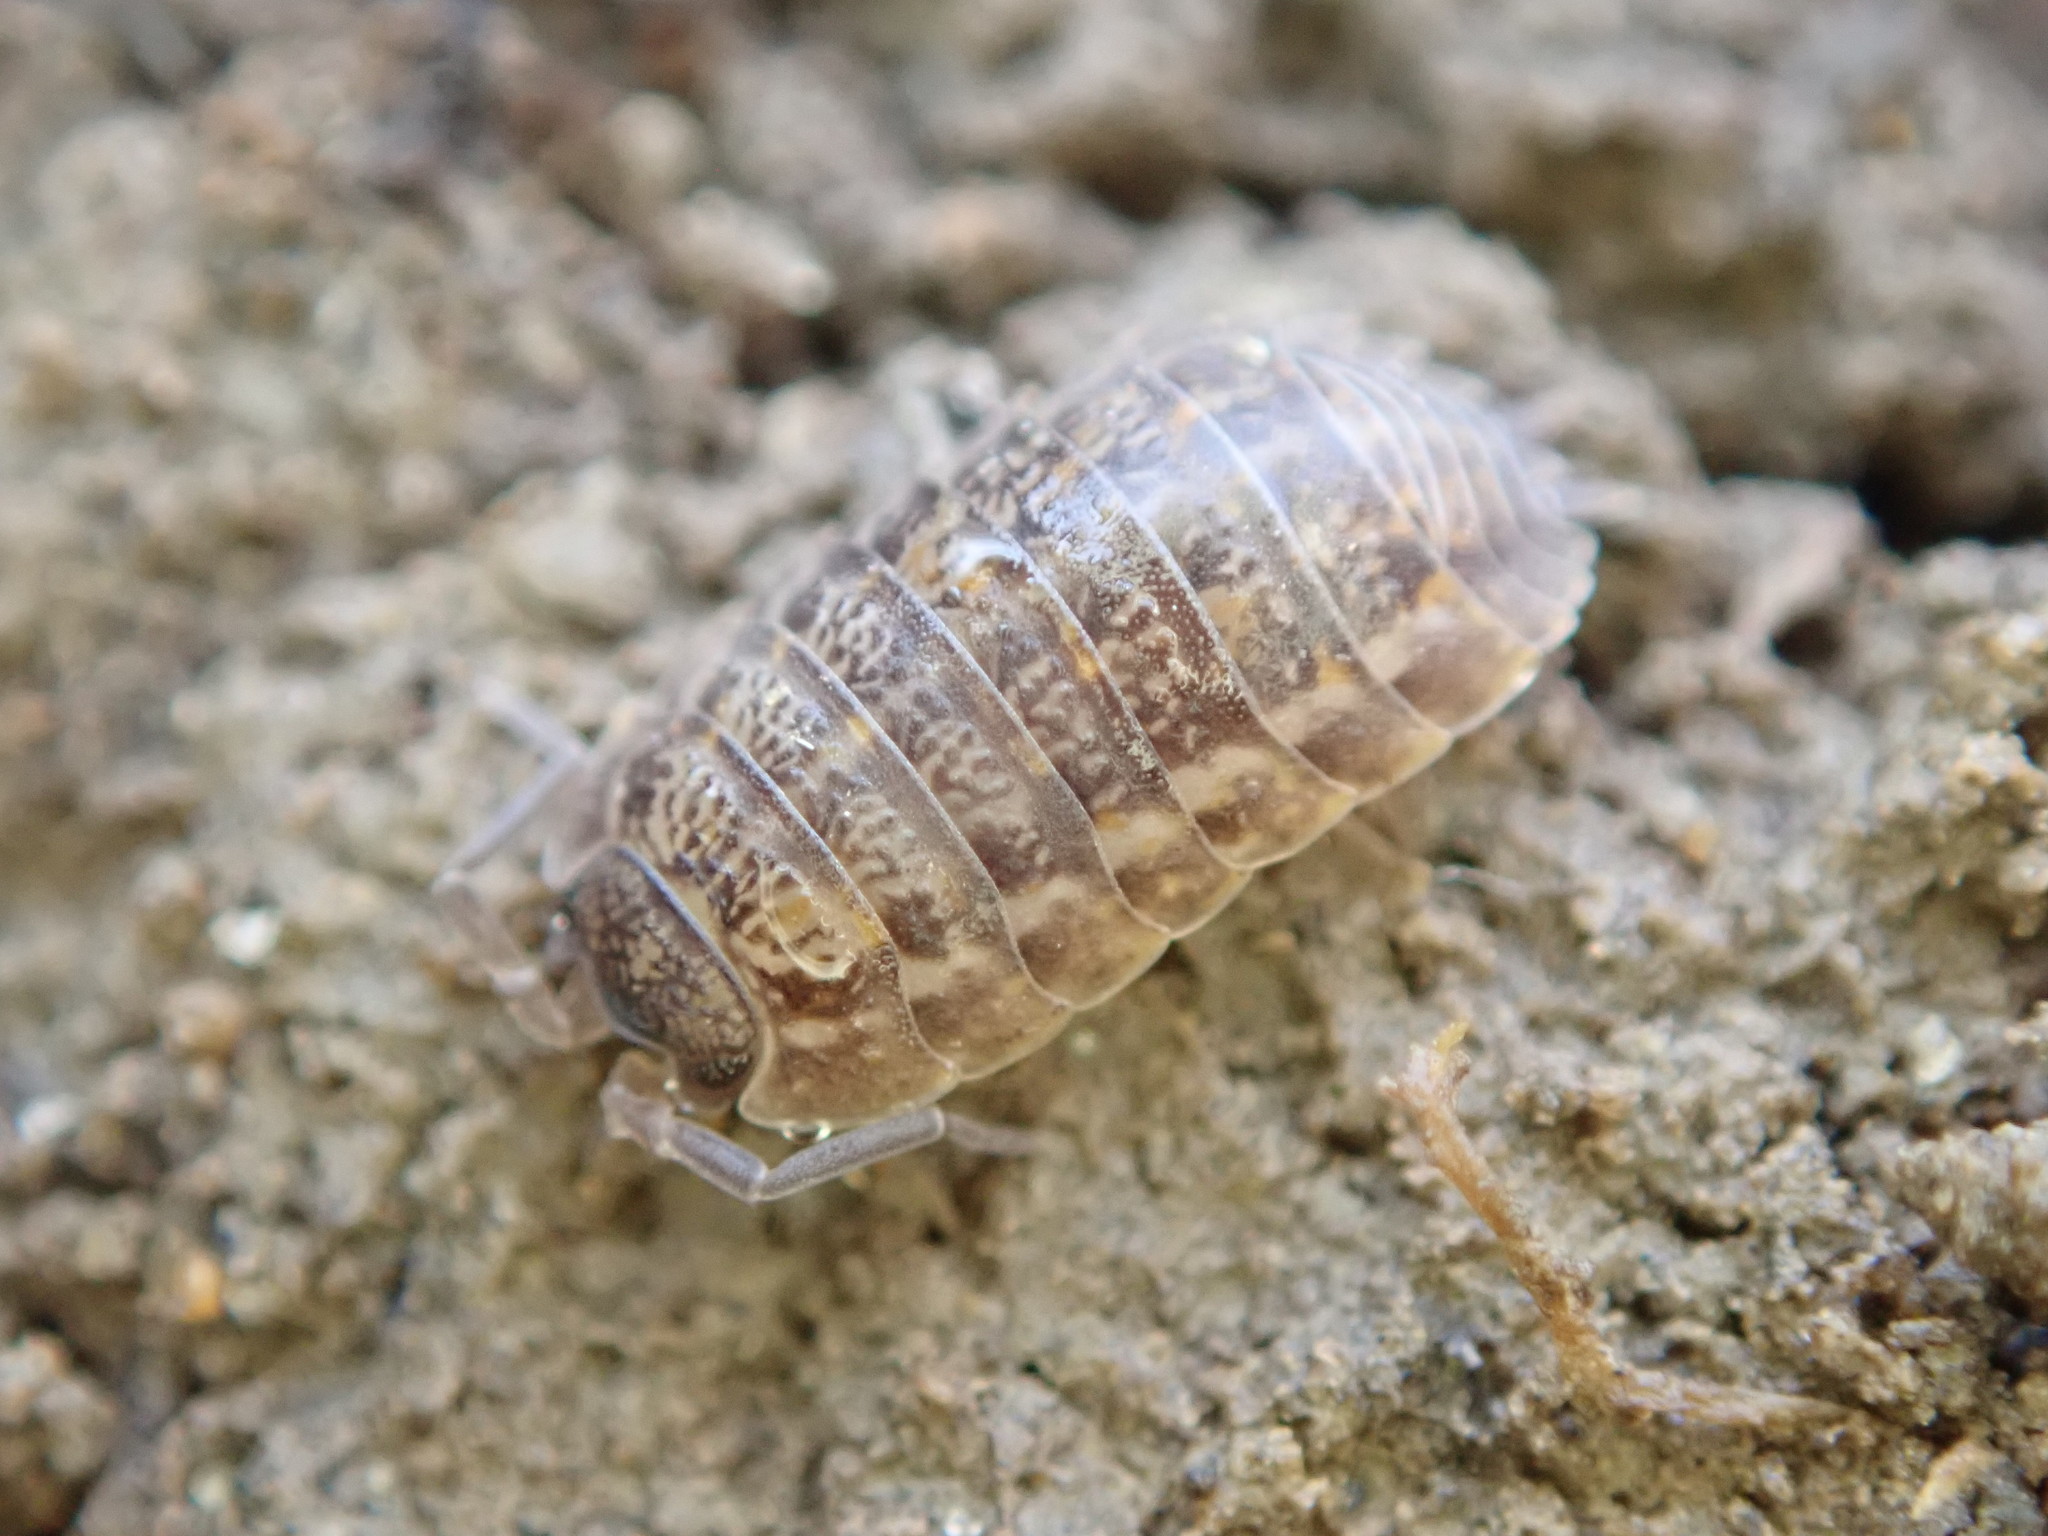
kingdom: Animalia
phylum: Arthropoda
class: Malacostraca
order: Isopoda
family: Trachelipodidae
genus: Trachelipus
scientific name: Trachelipus rathkii
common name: Isopod
